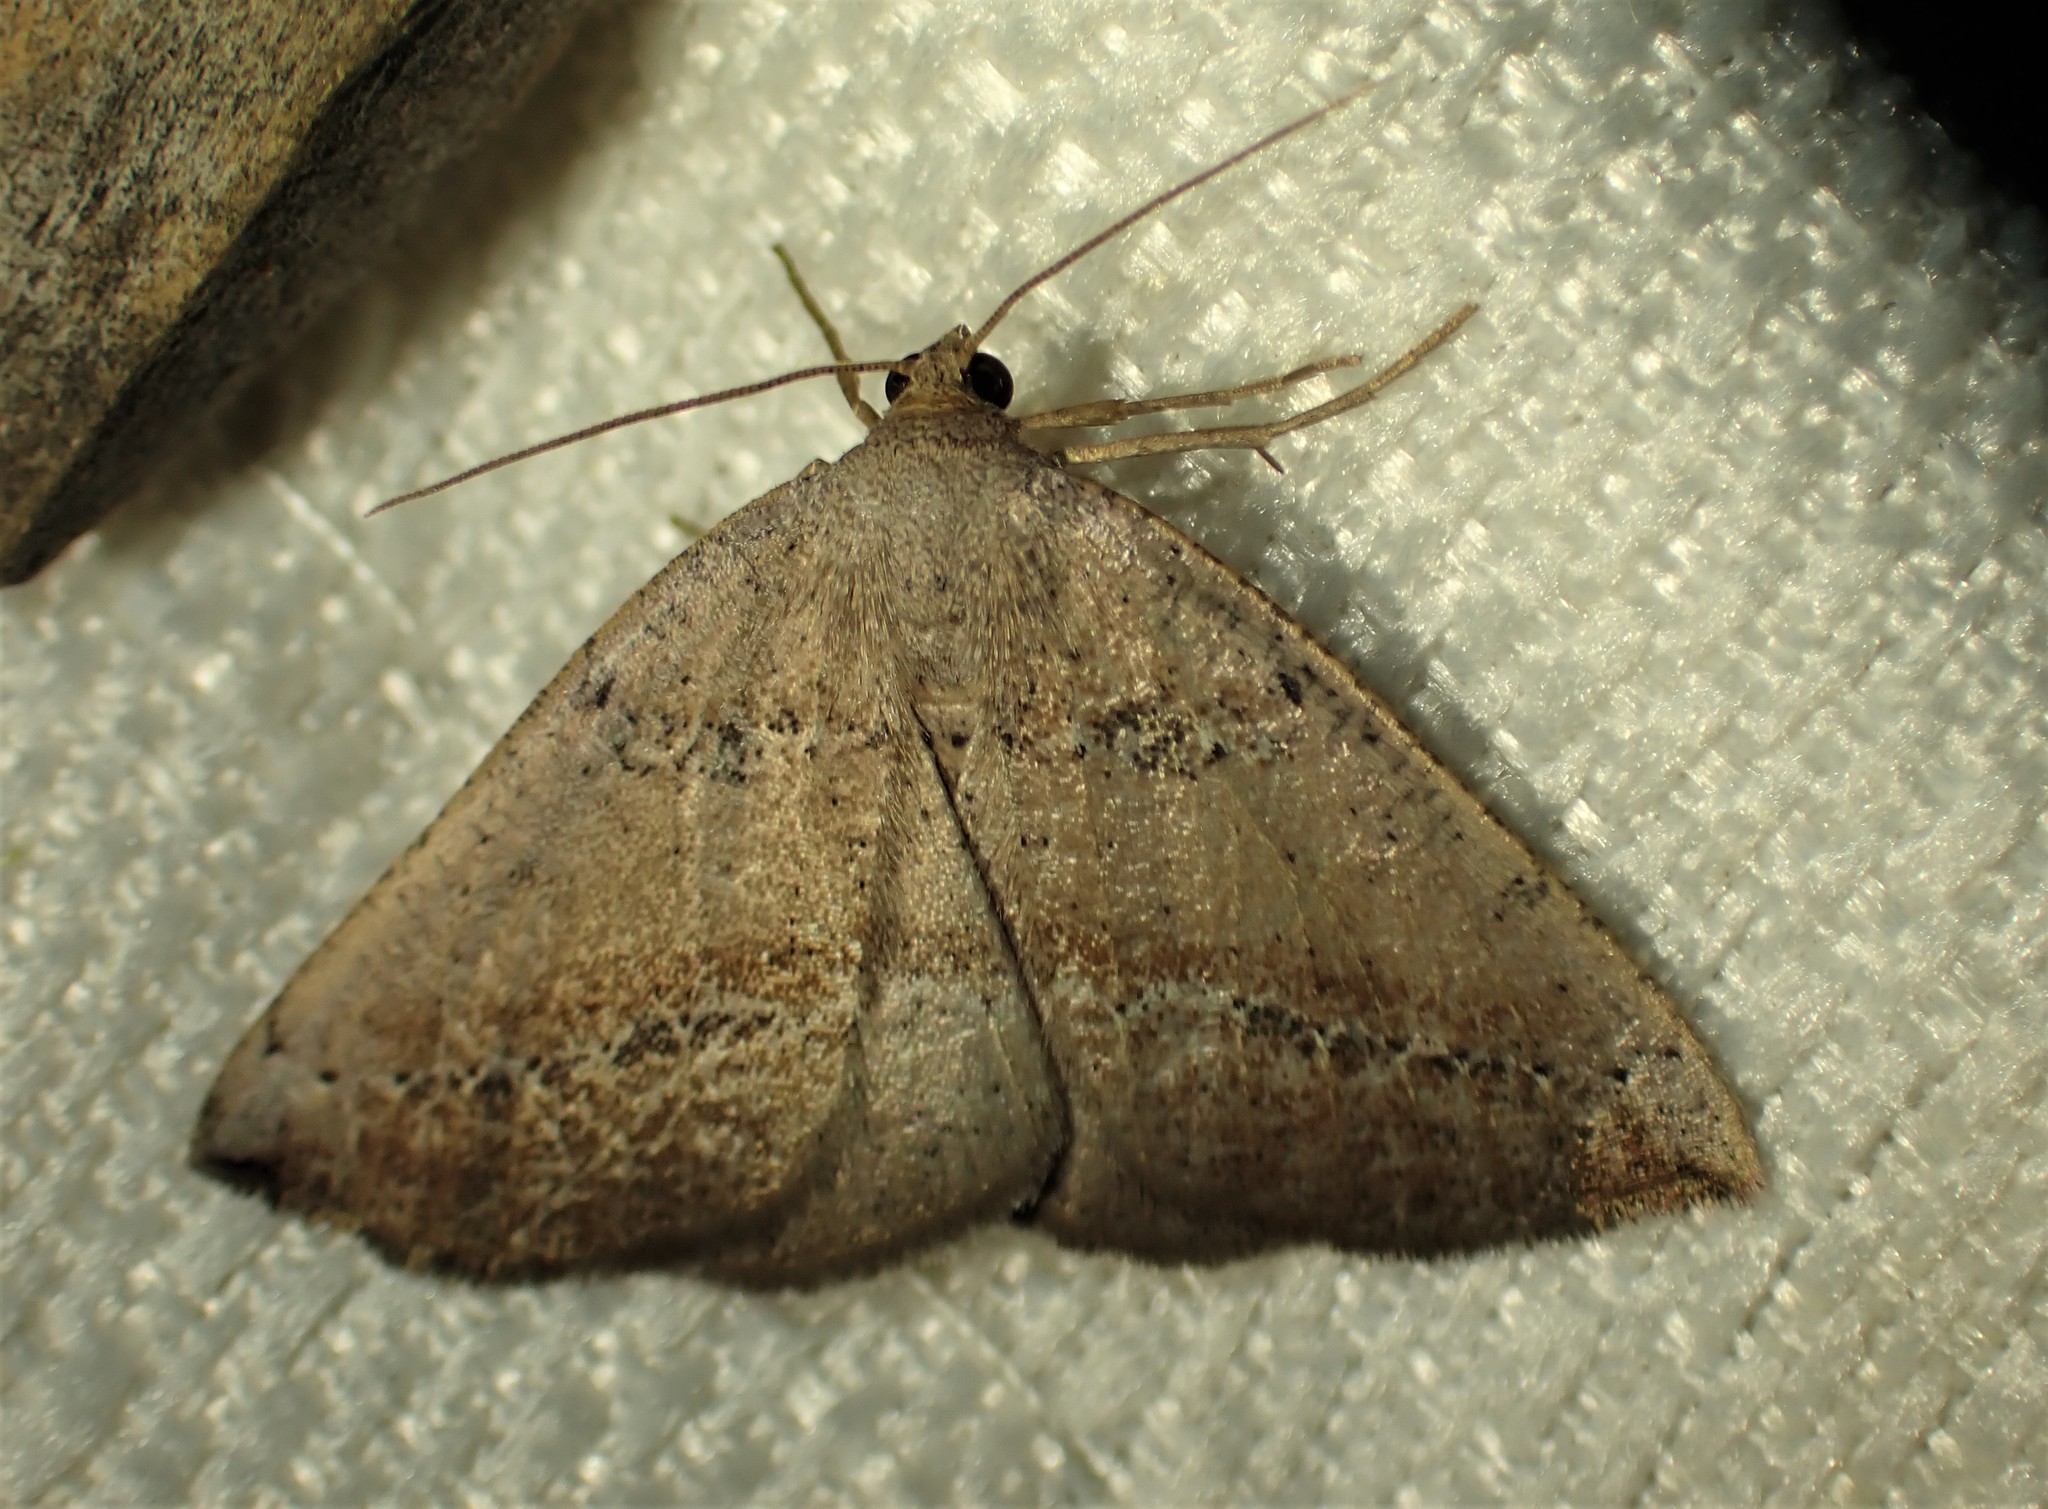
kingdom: Animalia
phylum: Arthropoda
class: Insecta
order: Lepidoptera
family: Geometridae
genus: Tacparia
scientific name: Tacparia atropunctata
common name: Northern pale alder
